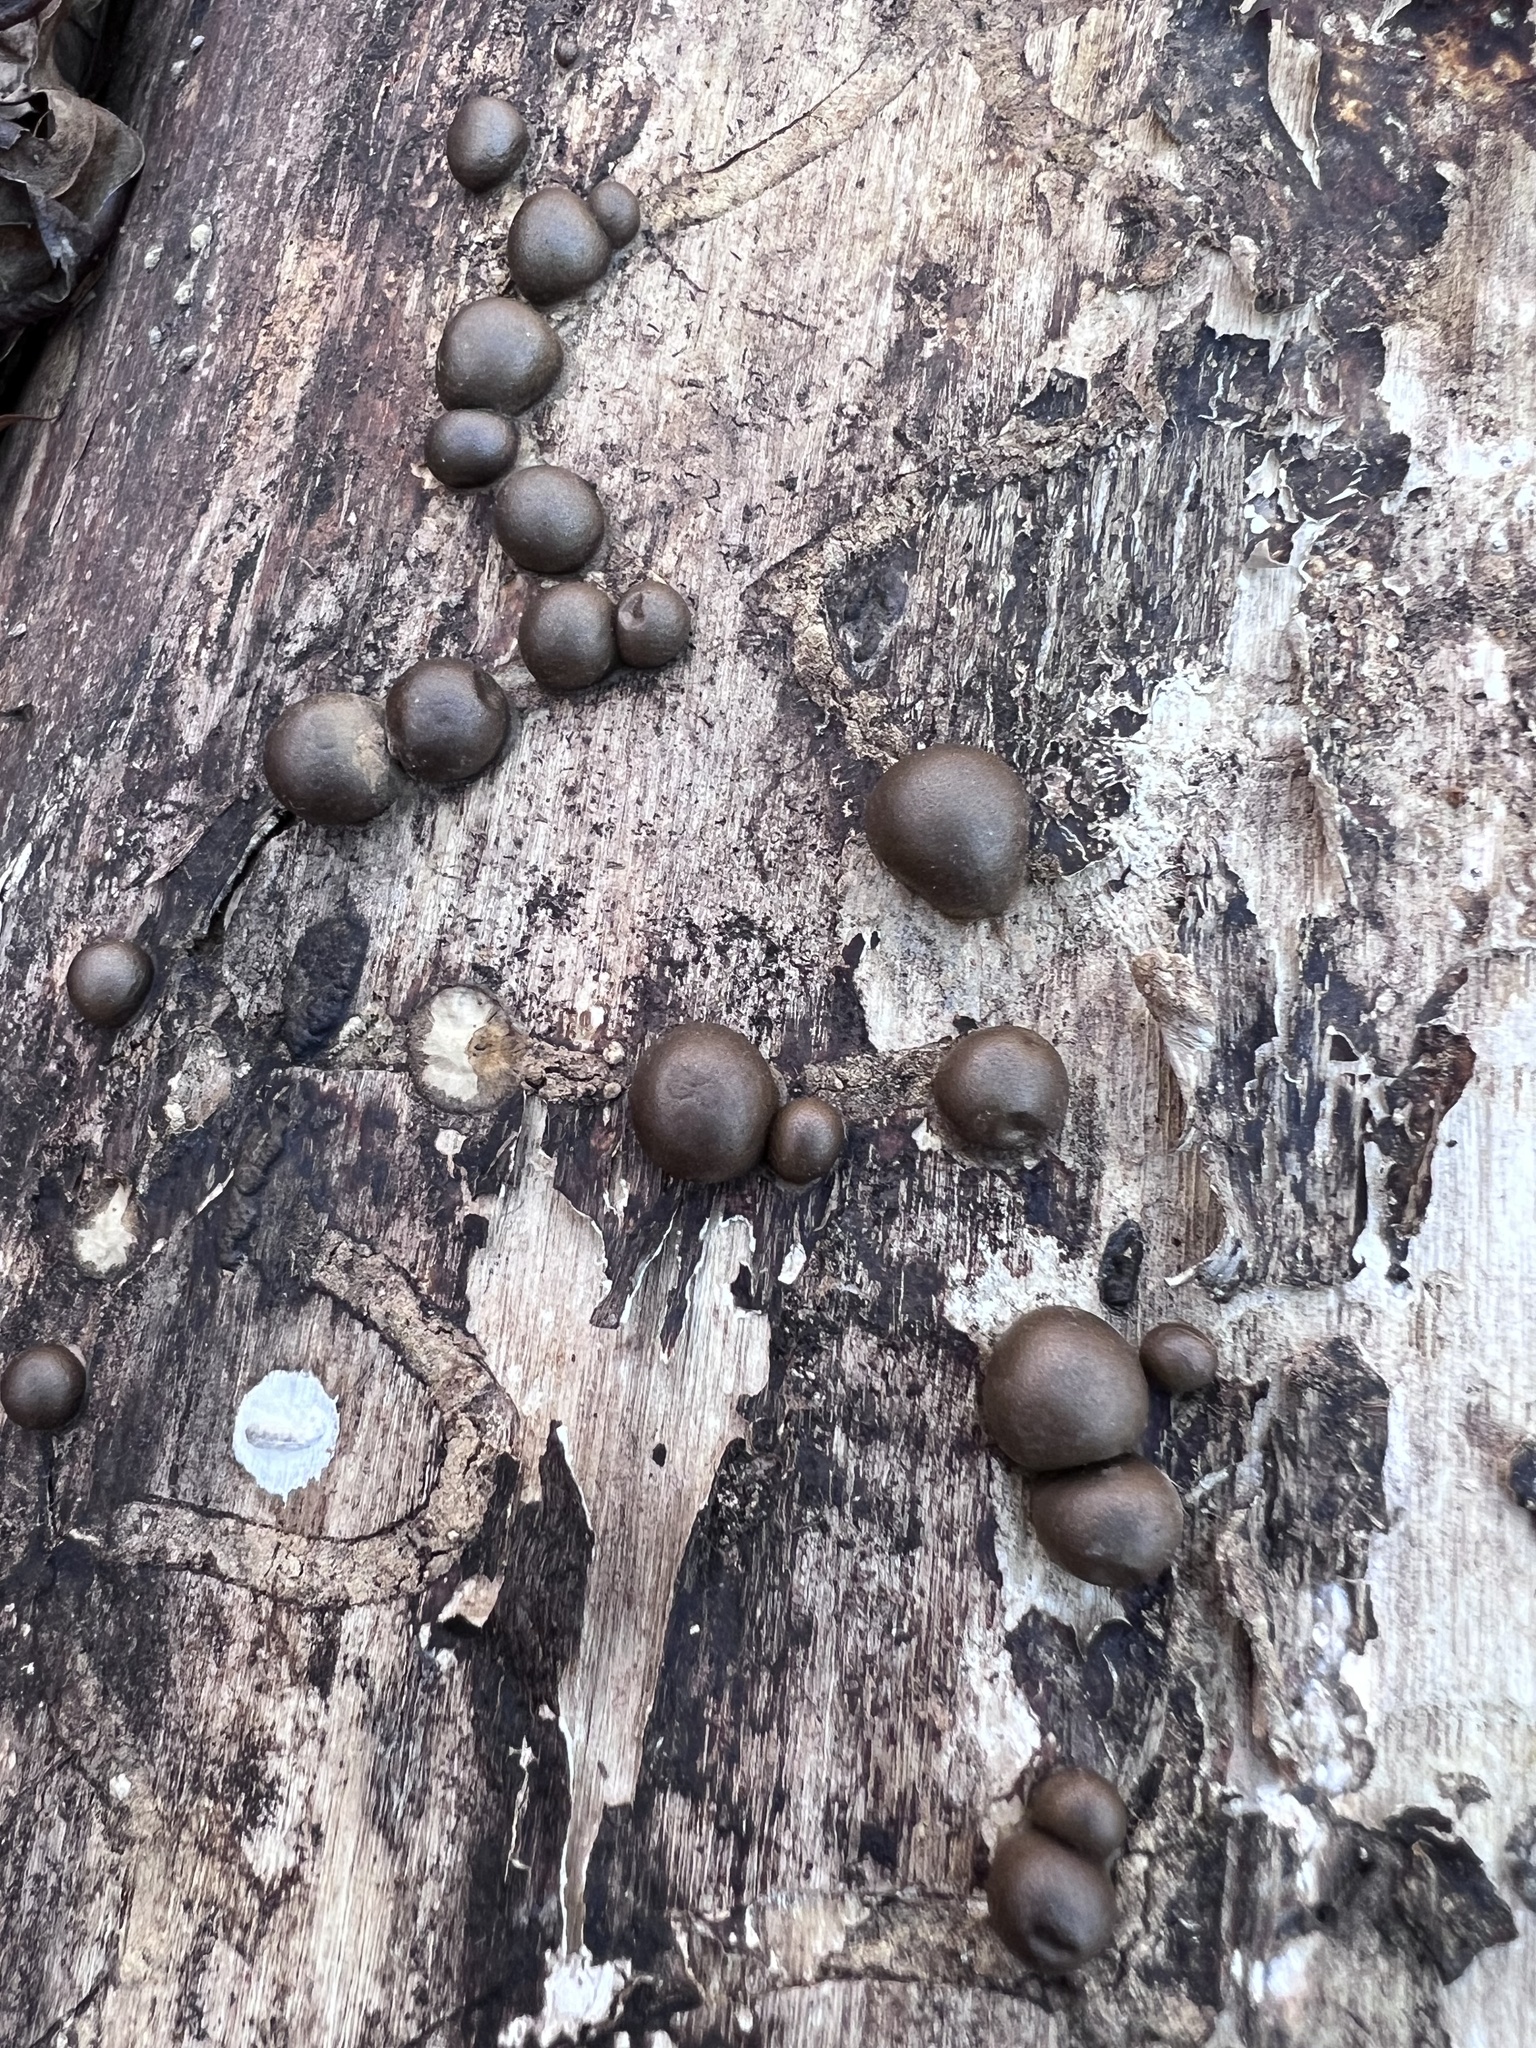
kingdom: Protozoa
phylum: Mycetozoa
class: Myxomycetes
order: Cribrariales
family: Tubiferaceae
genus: Lycogala
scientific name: Lycogala epidendrum
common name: Wolf's milk
